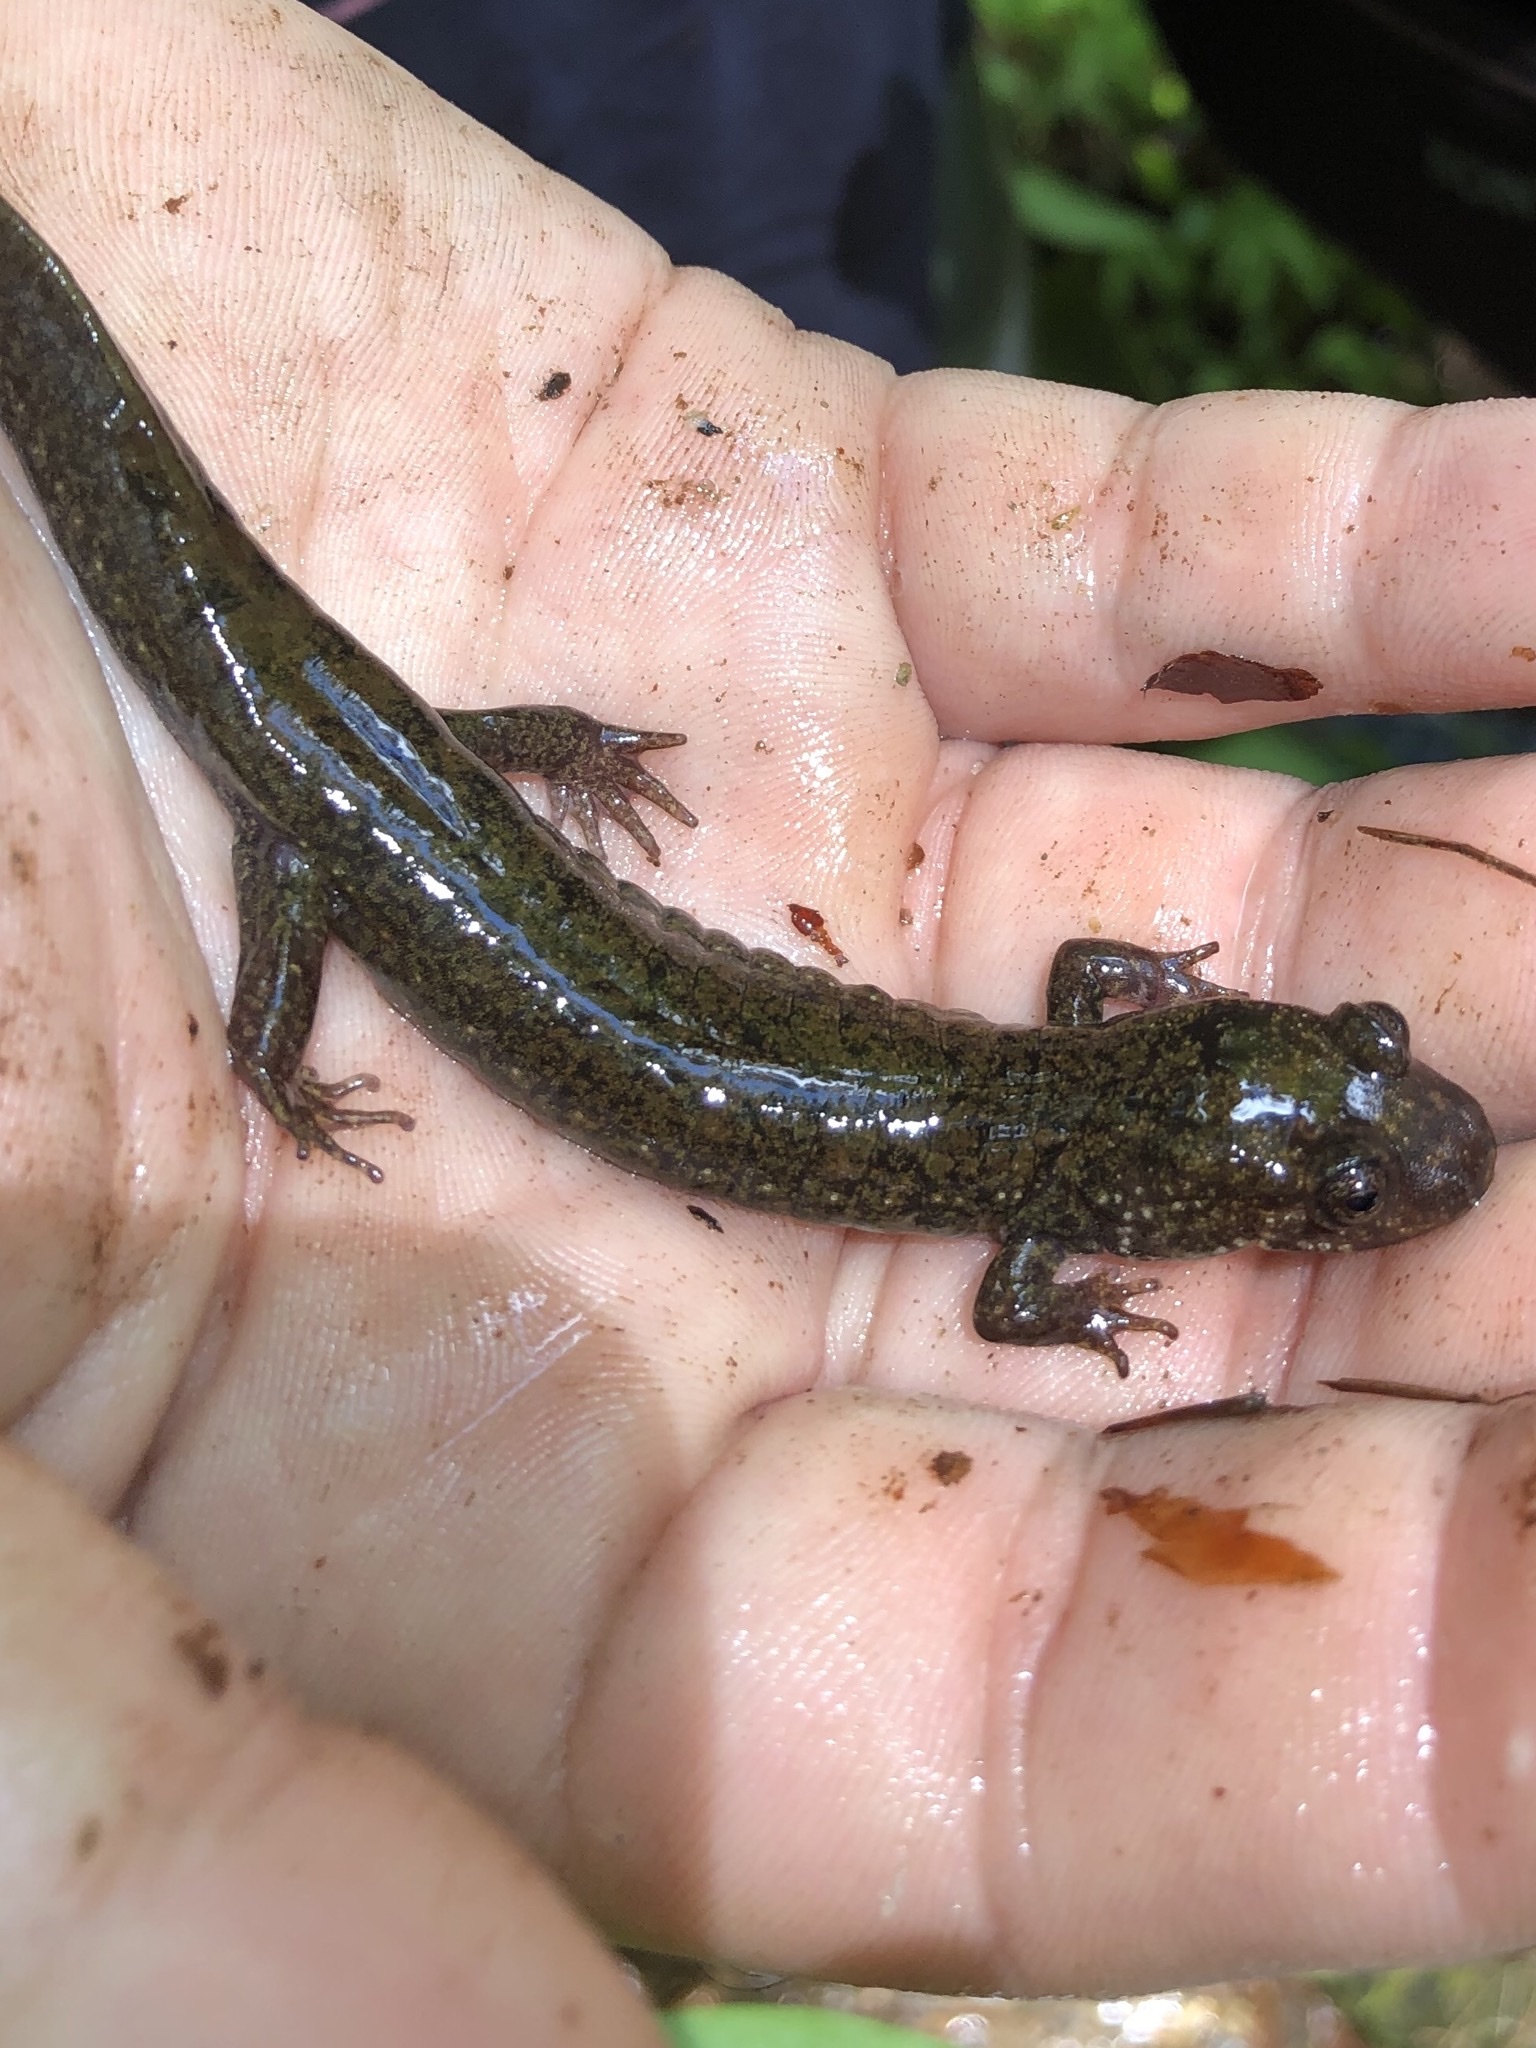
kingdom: Animalia
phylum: Chordata
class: Amphibia
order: Caudata
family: Plethodontidae
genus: Desmognathus
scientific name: Desmognathus
